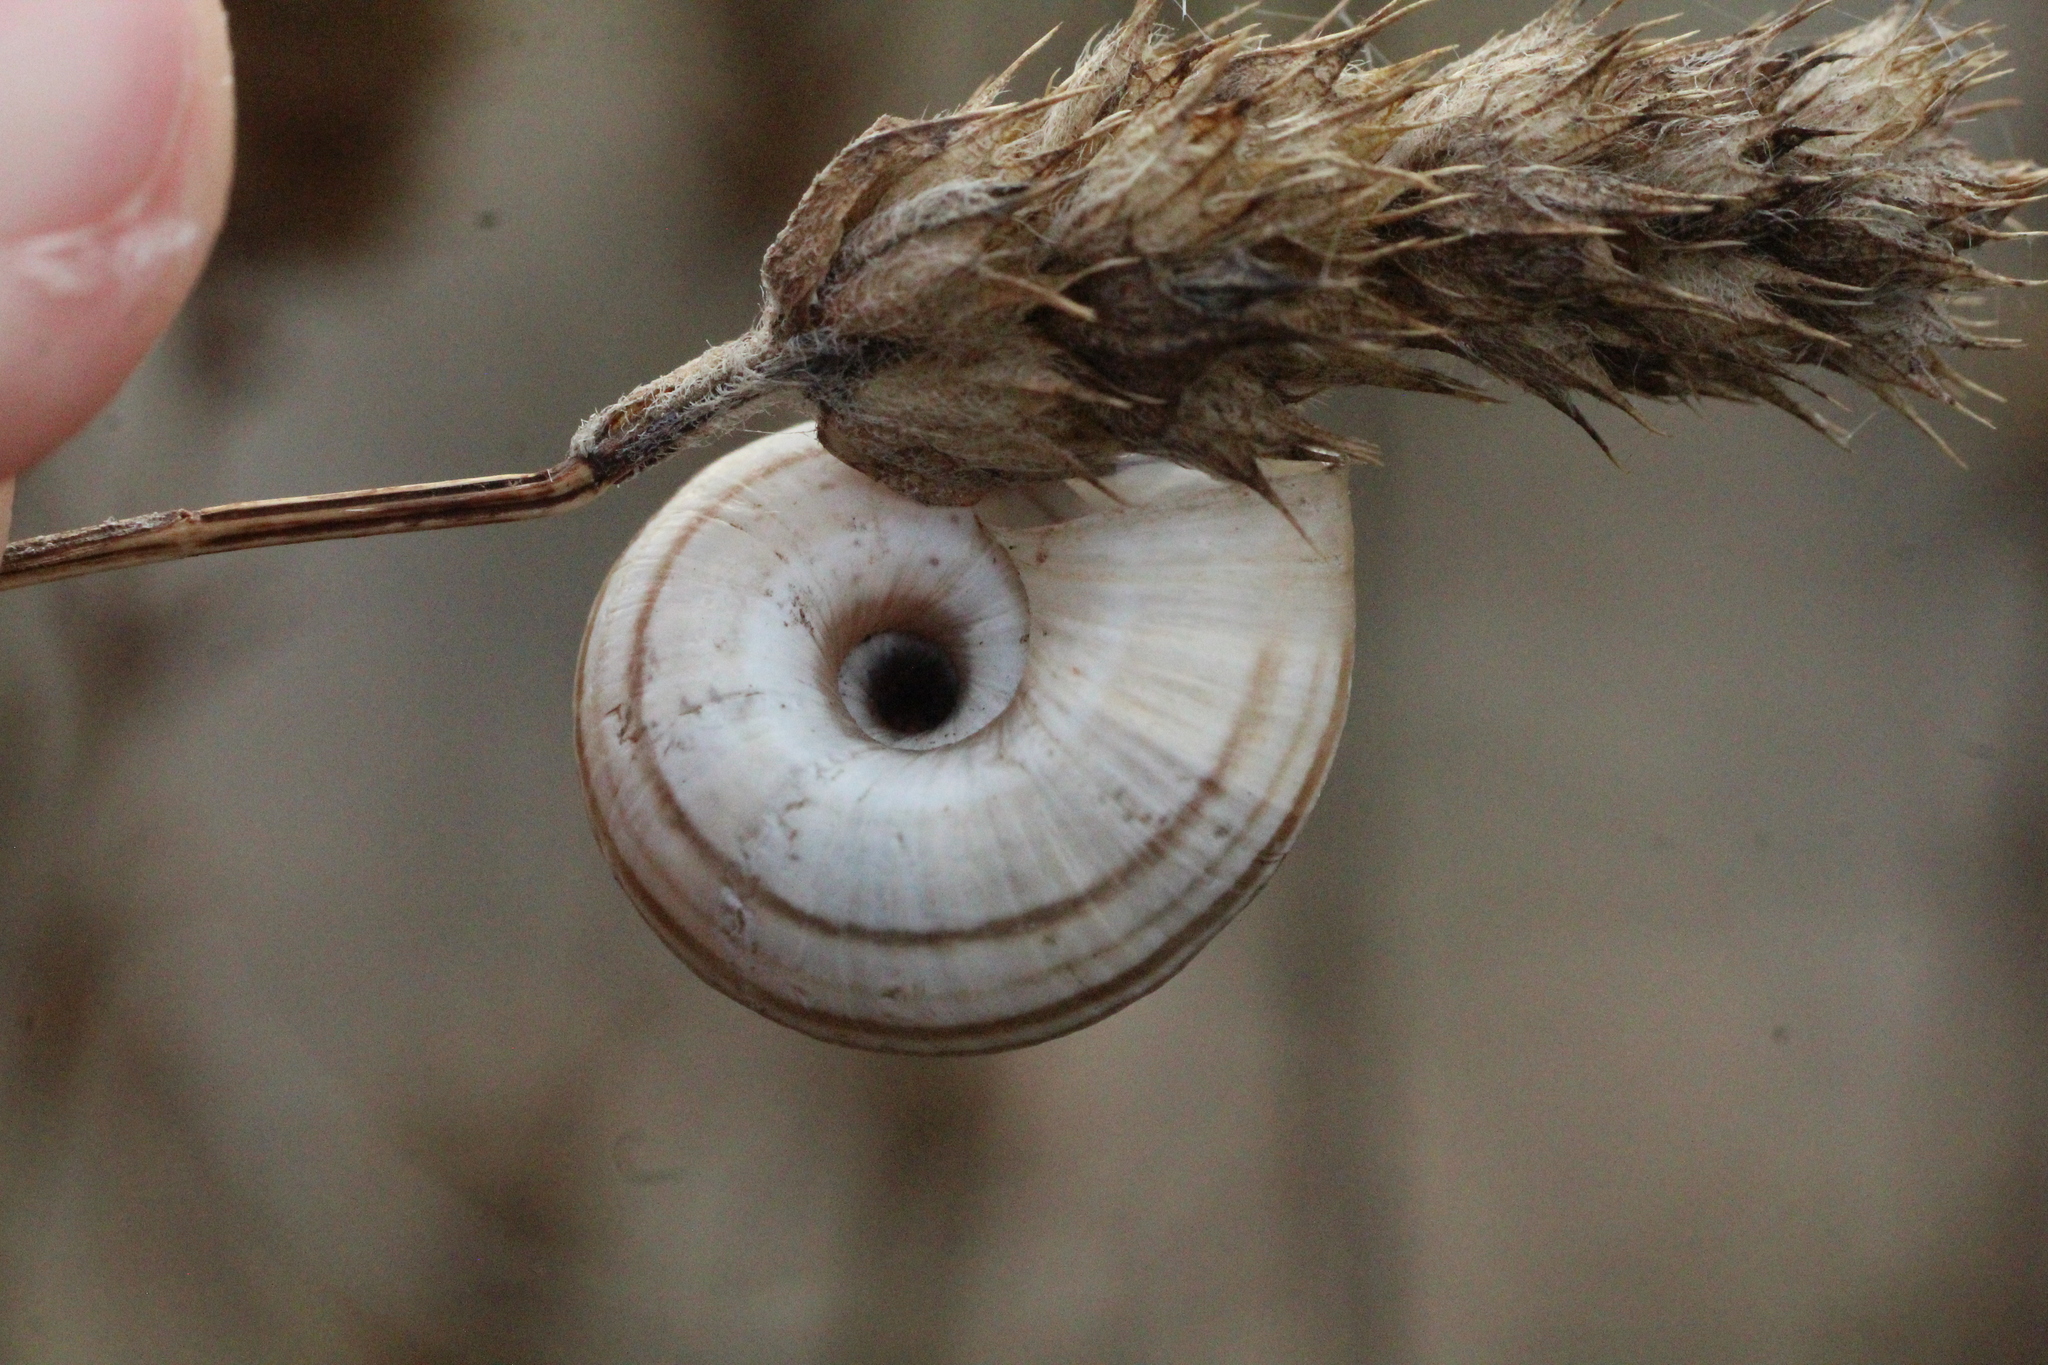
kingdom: Animalia
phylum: Mollusca
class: Gastropoda
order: Stylommatophora
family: Geomitridae
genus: Helicella
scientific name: Helicella itala
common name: Heath snail
